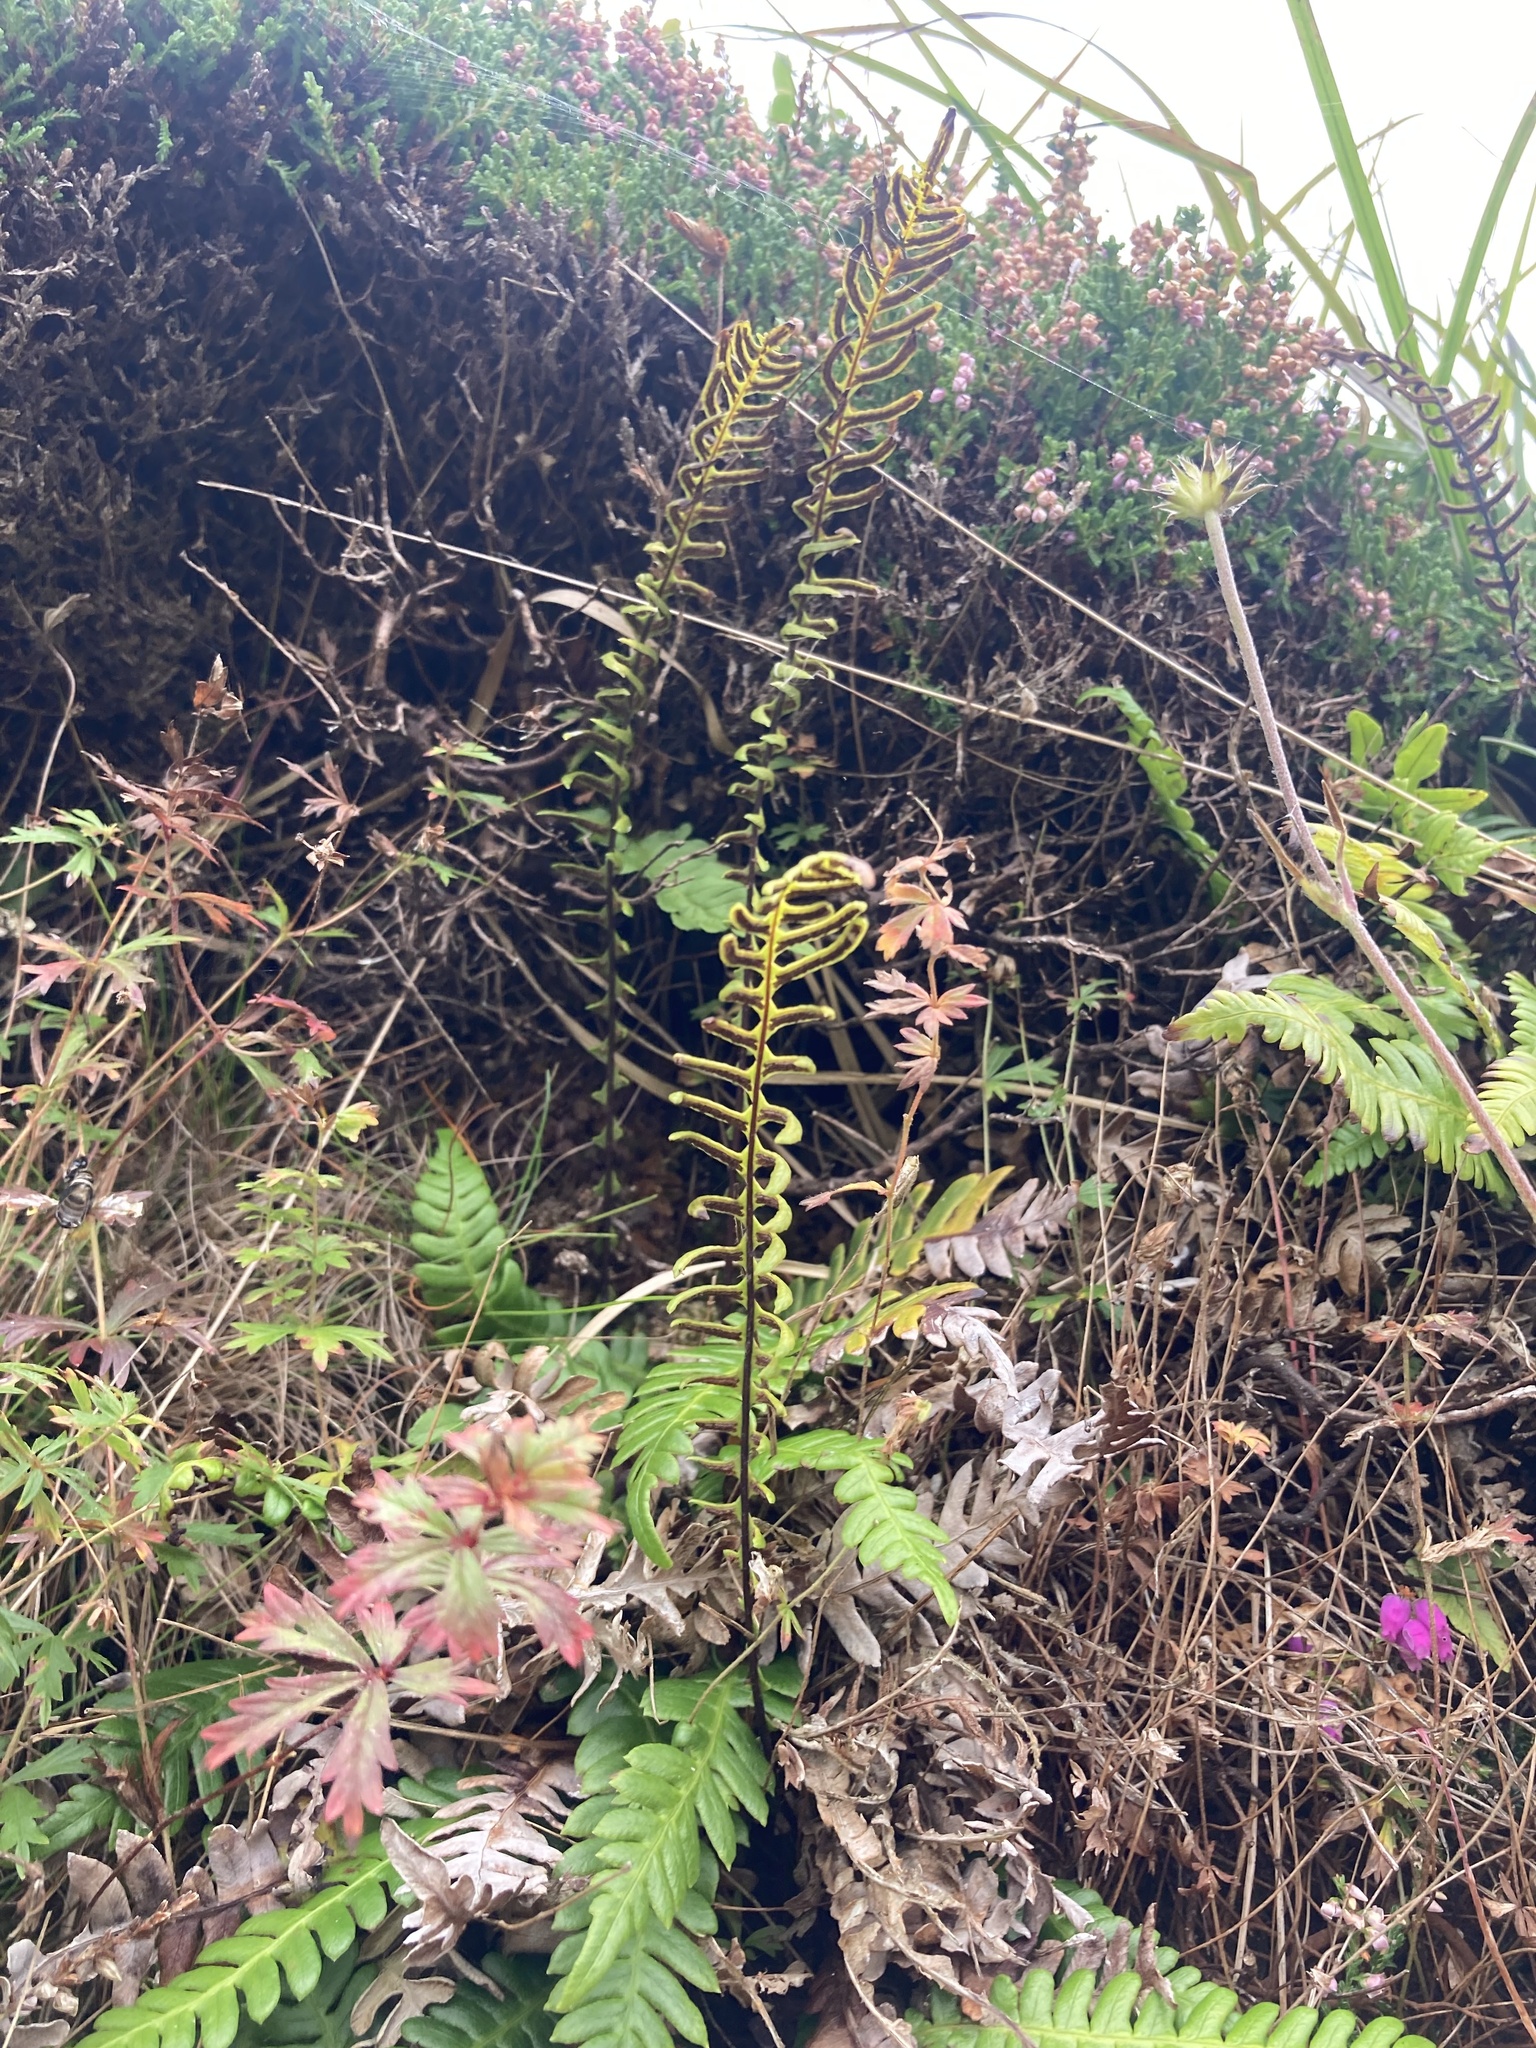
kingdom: Plantae
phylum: Tracheophyta
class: Polypodiopsida
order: Polypodiales
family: Blechnaceae
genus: Struthiopteris
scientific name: Struthiopteris spicant
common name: Deer fern
